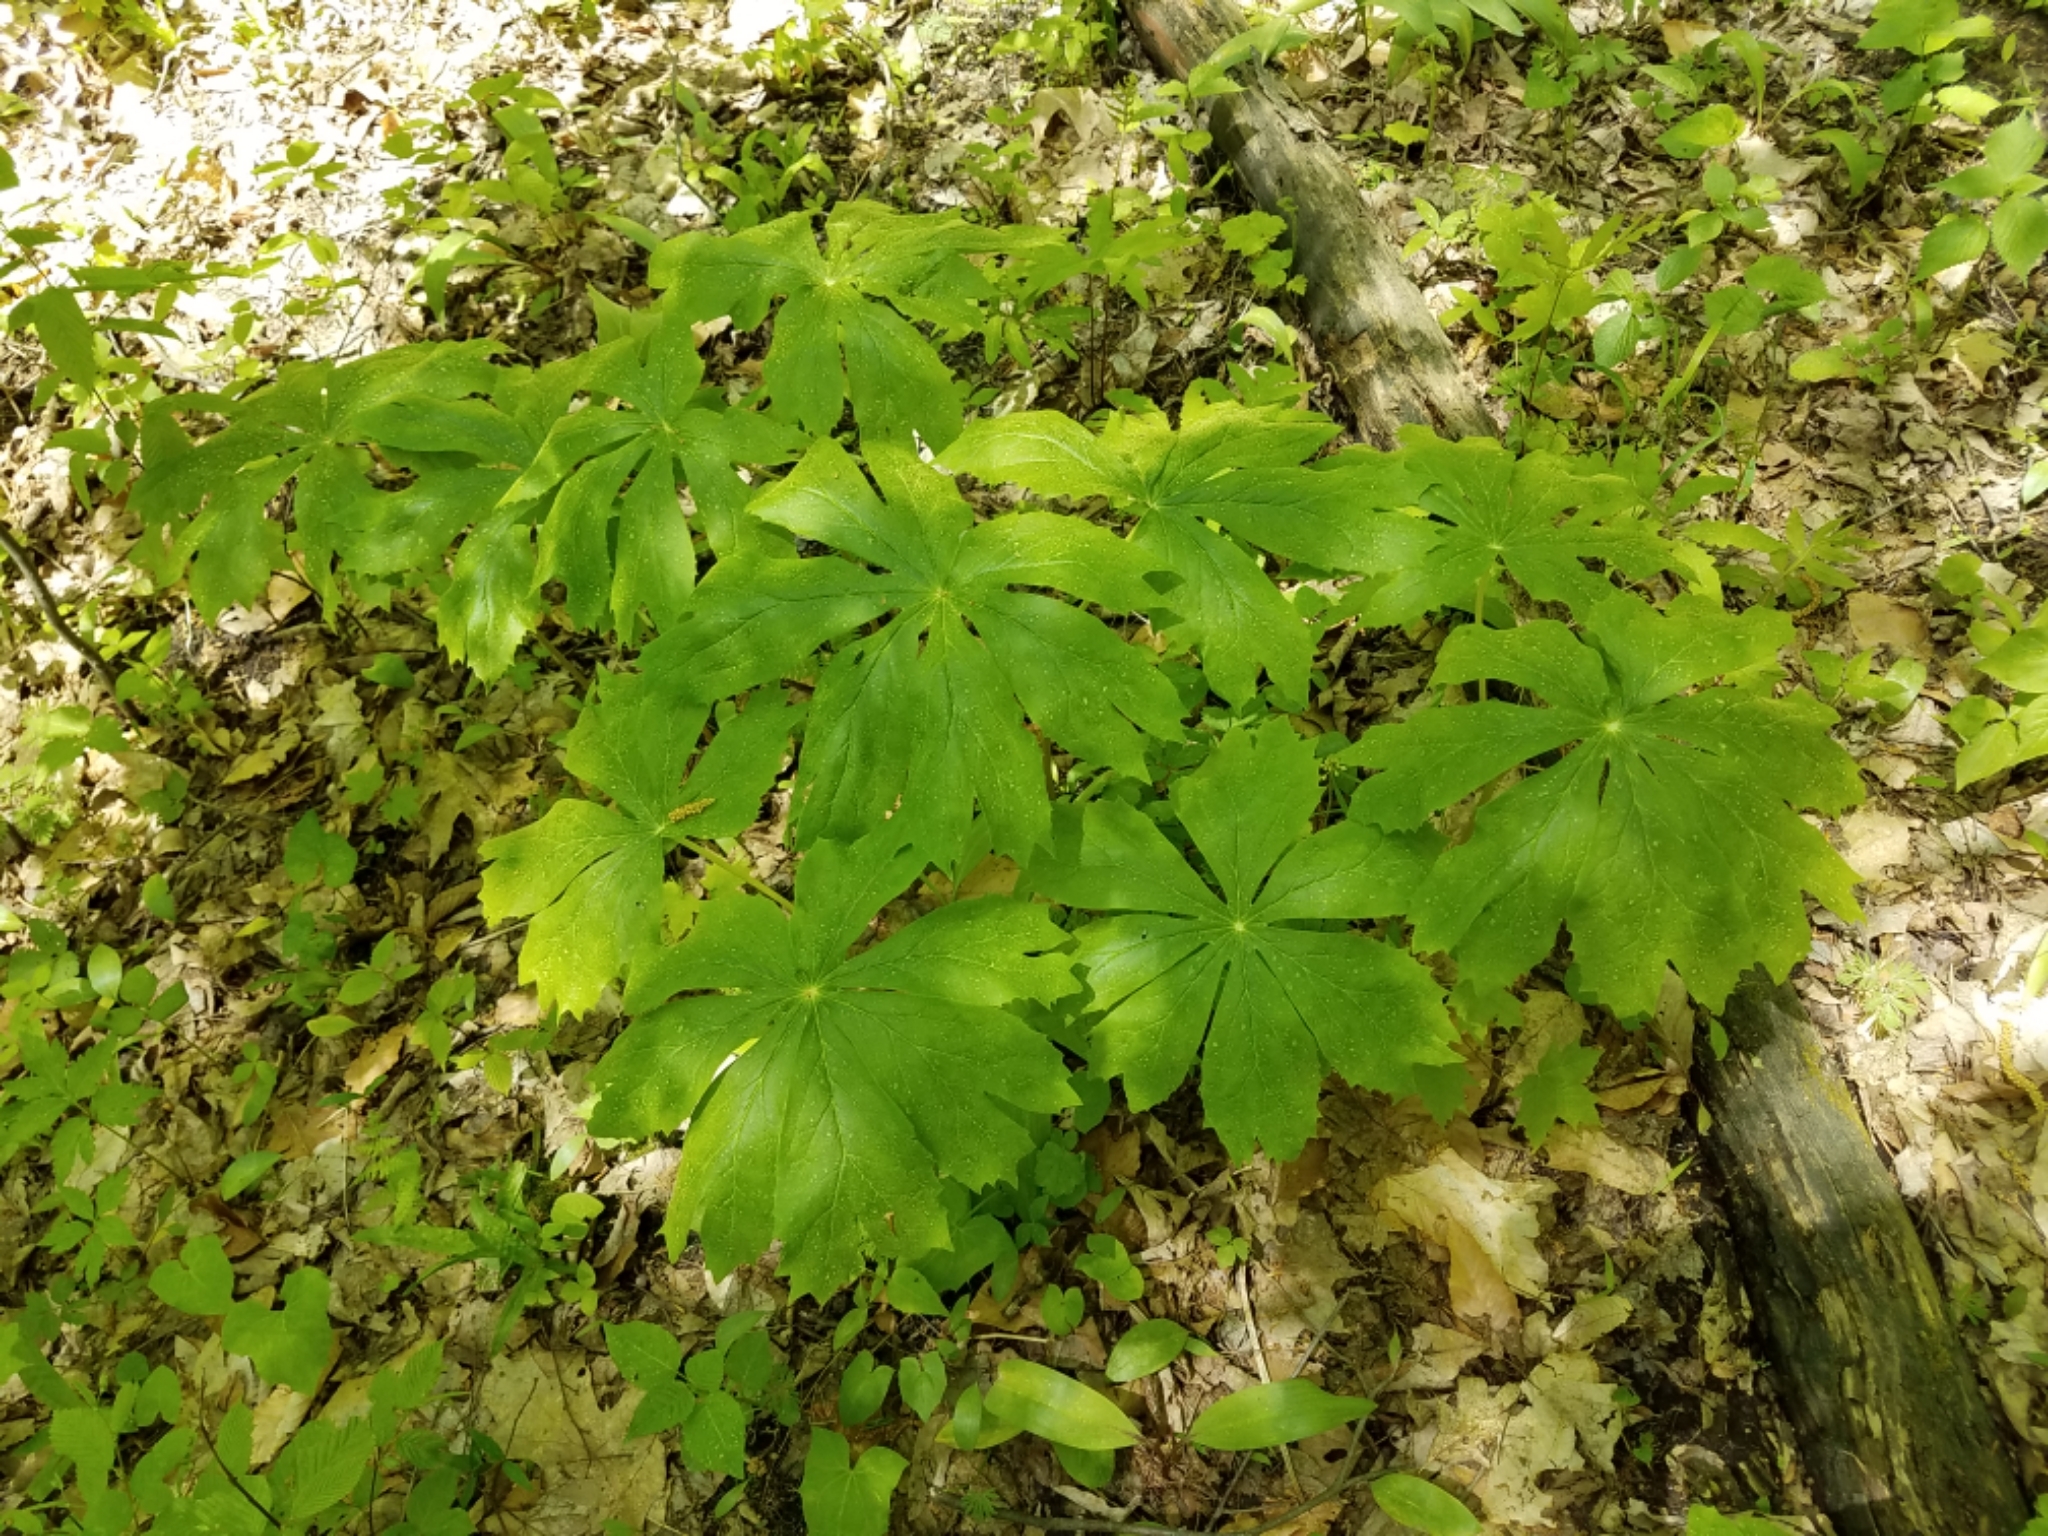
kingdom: Plantae
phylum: Tracheophyta
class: Magnoliopsida
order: Ranunculales
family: Berberidaceae
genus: Podophyllum
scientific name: Podophyllum peltatum
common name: Wild mandrake
